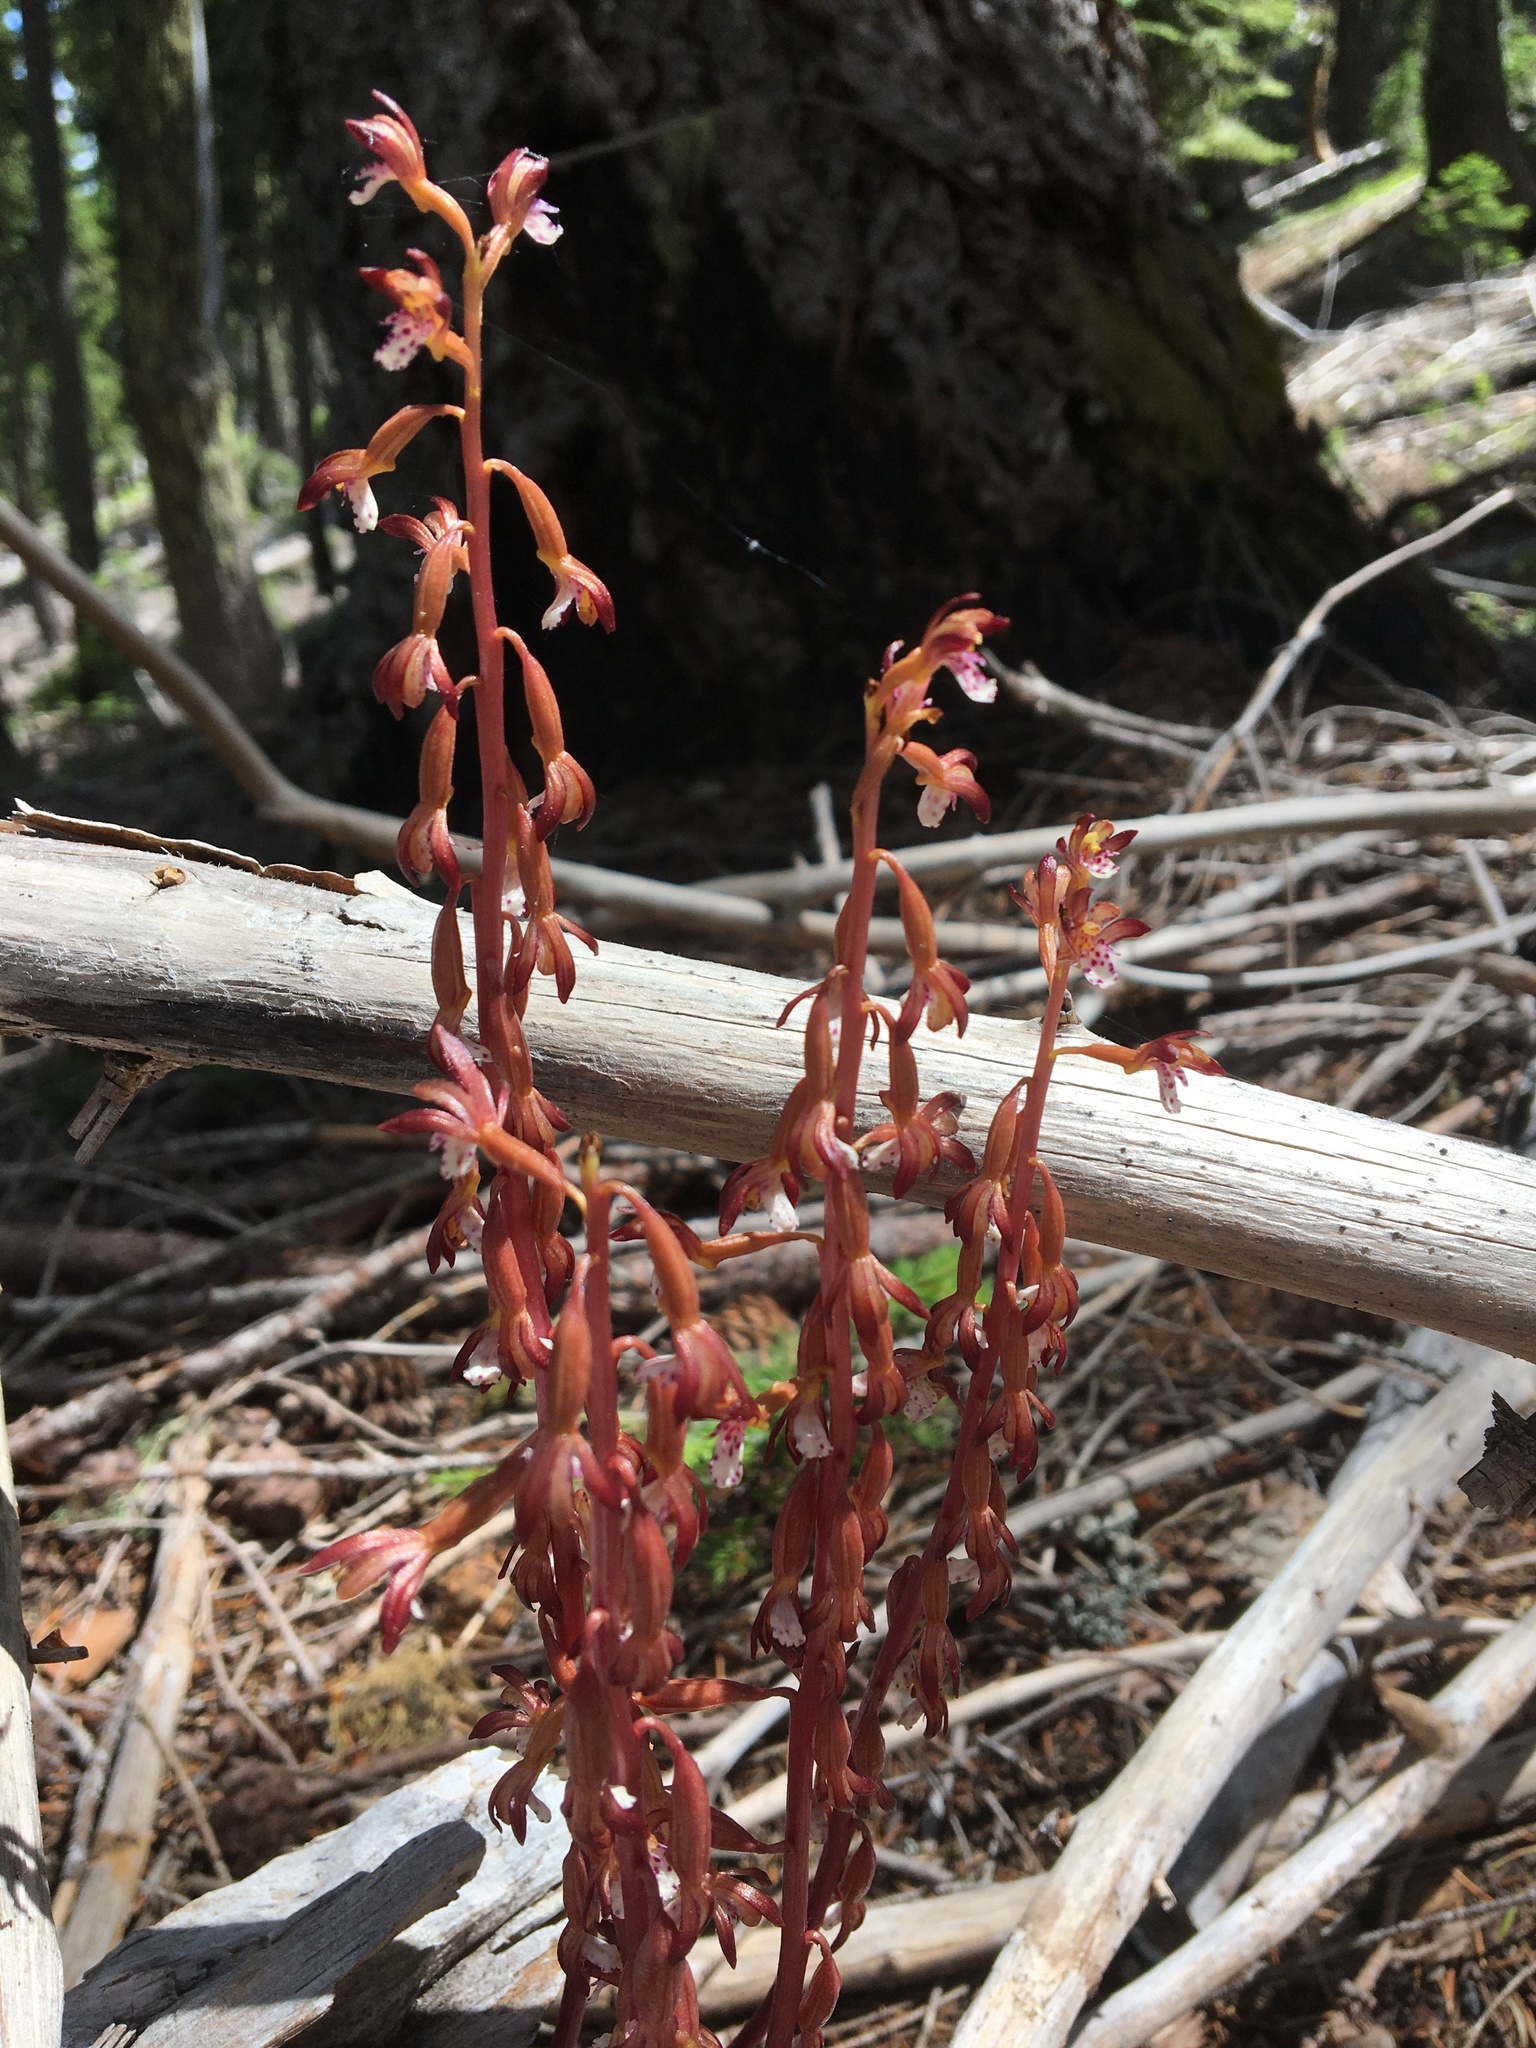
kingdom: Plantae
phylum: Tracheophyta
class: Liliopsida
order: Asparagales
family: Orchidaceae
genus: Corallorhiza
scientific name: Corallorhiza maculata
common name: Spotted coralroot
